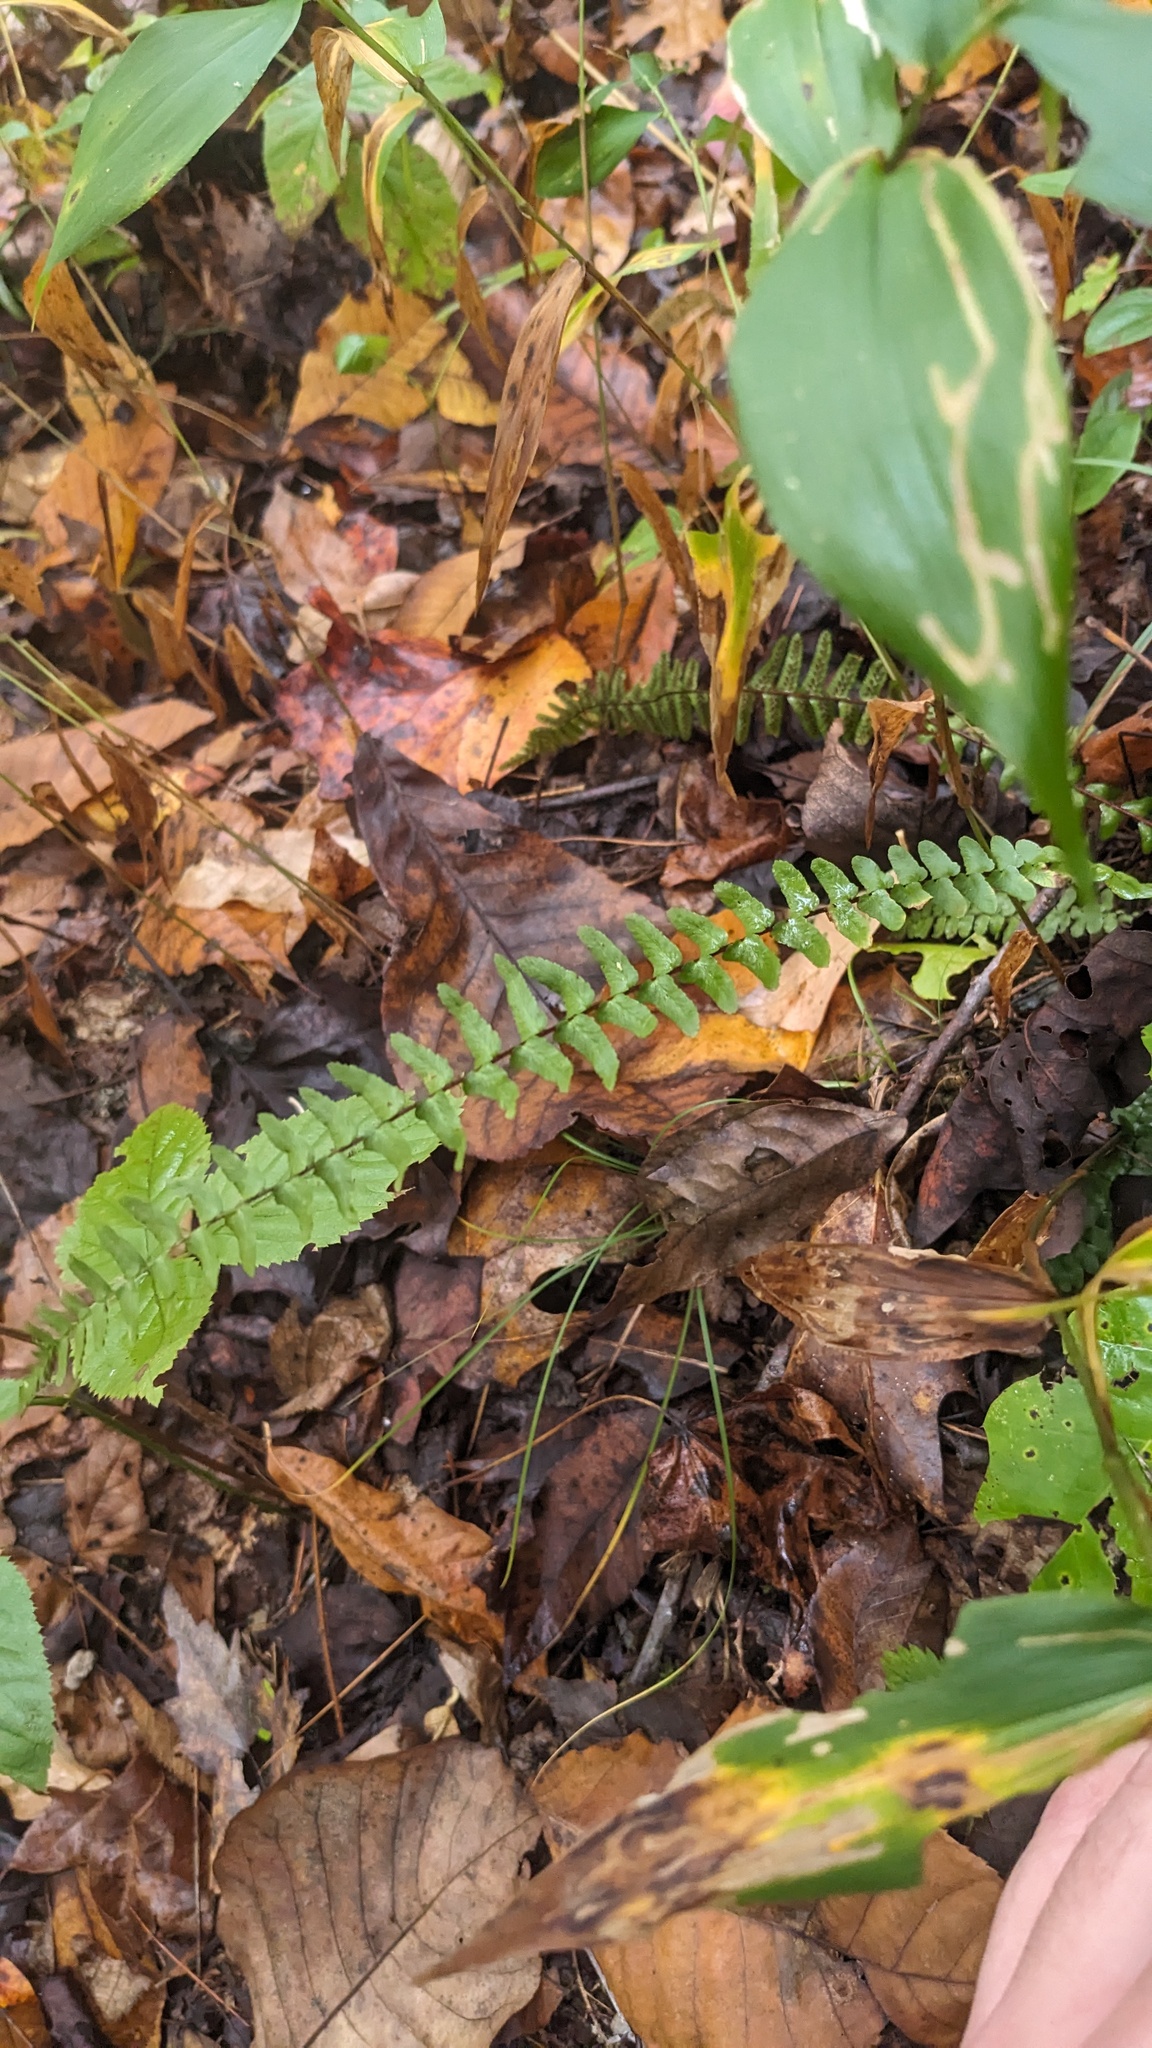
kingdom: Plantae
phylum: Tracheophyta
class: Polypodiopsida
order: Polypodiales
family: Aspleniaceae
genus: Asplenium
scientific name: Asplenium platyneuron
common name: Ebony spleenwort
